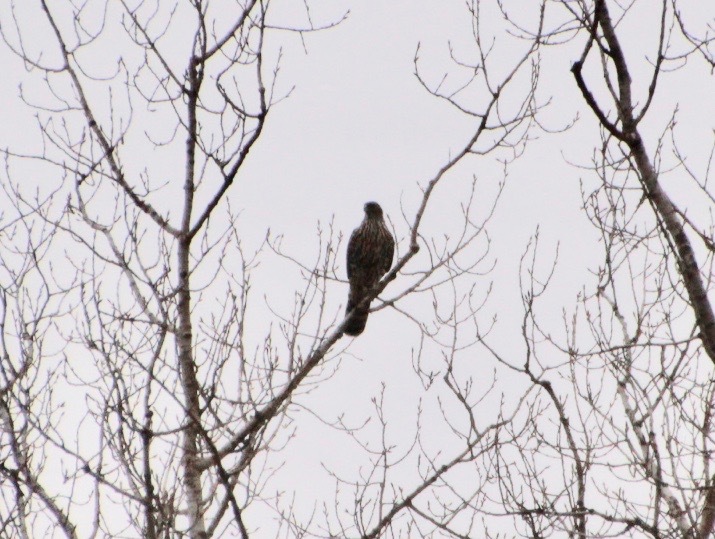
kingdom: Animalia
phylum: Chordata
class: Aves
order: Accipitriformes
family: Accipitridae
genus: Accipiter
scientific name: Accipiter gentilis
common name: Northern goshawk
